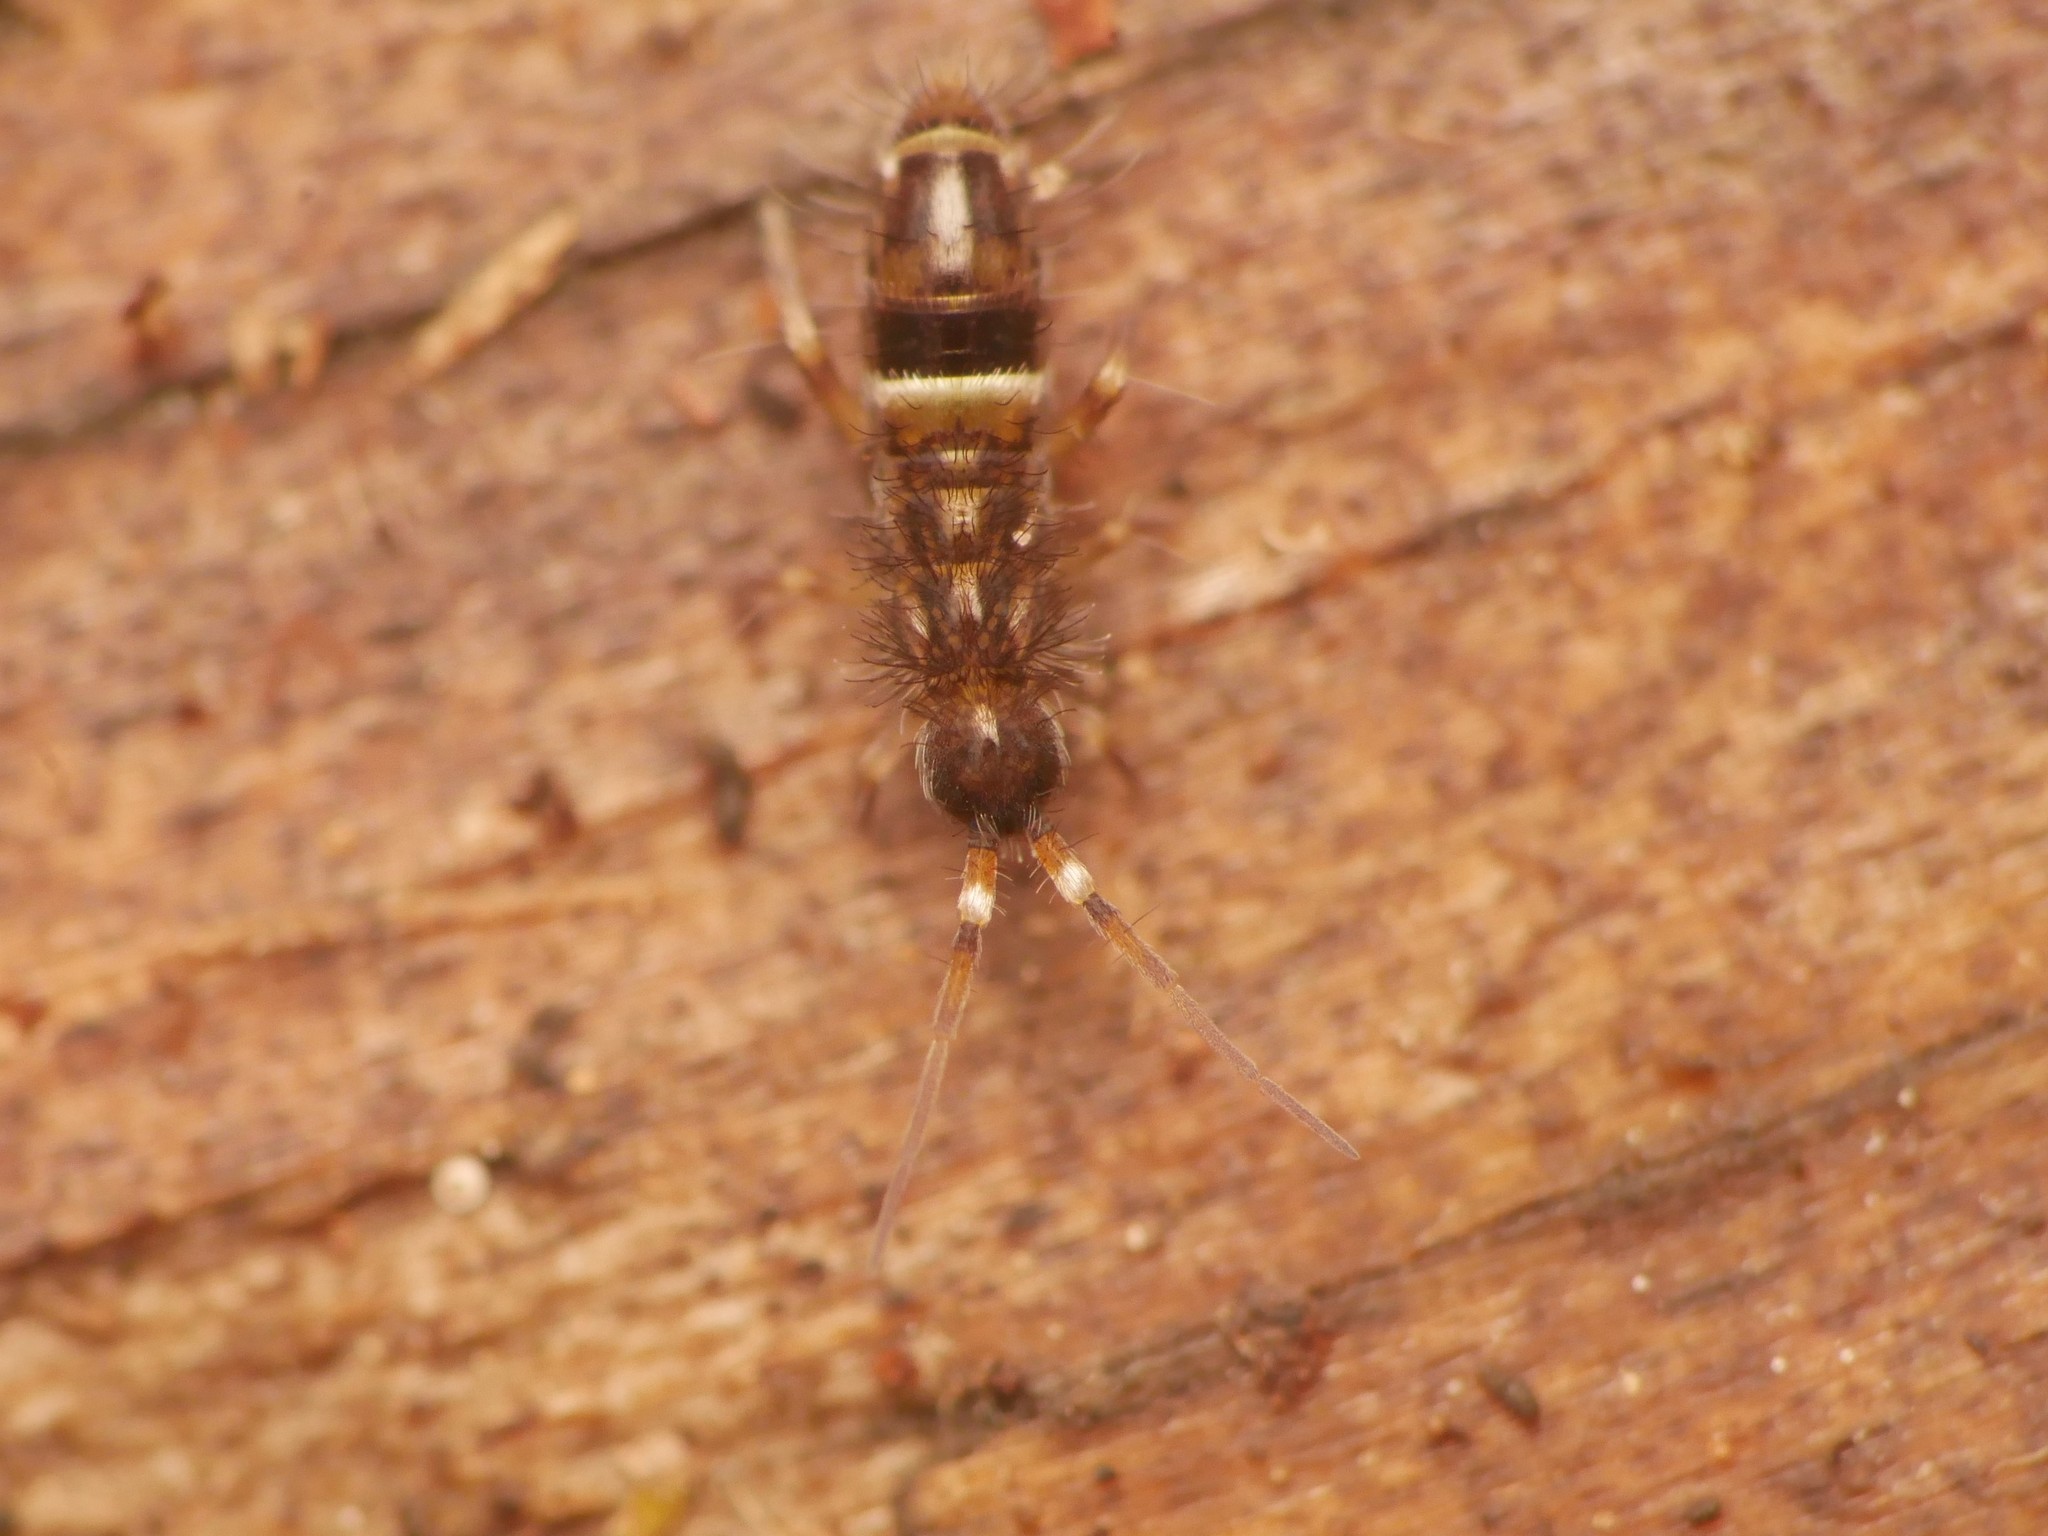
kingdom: Animalia
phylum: Arthropoda
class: Collembola
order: Entomobryomorpha
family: Orchesellidae
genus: Orchesella
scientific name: Orchesella cincta
